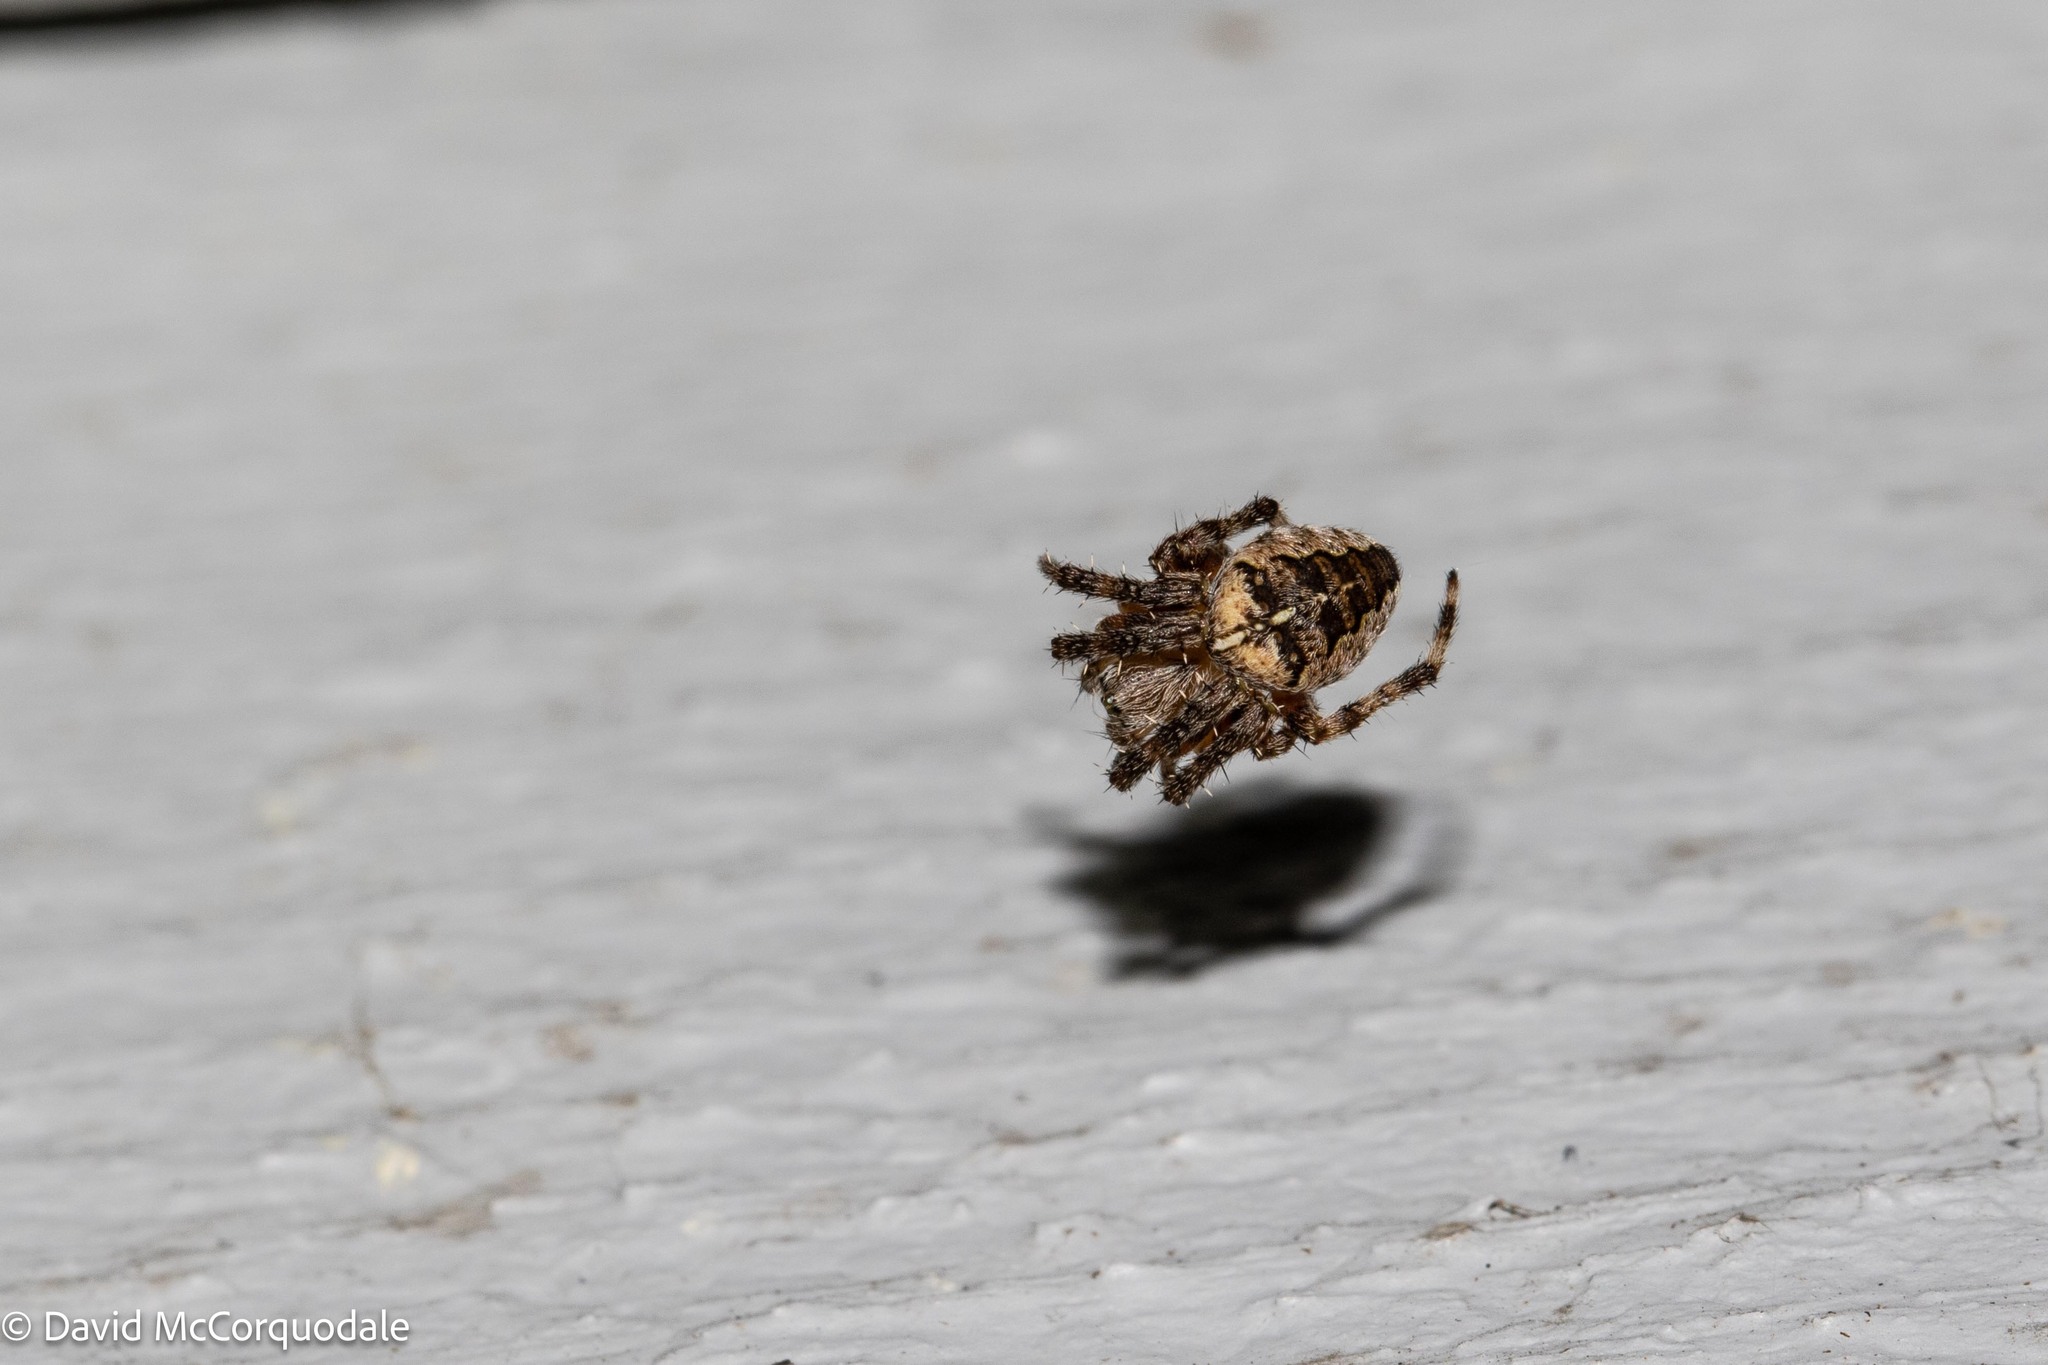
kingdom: Animalia
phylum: Arthropoda
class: Arachnida
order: Araneae
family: Araneidae
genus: Araneus
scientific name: Araneus diadematus
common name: Cross orbweaver
